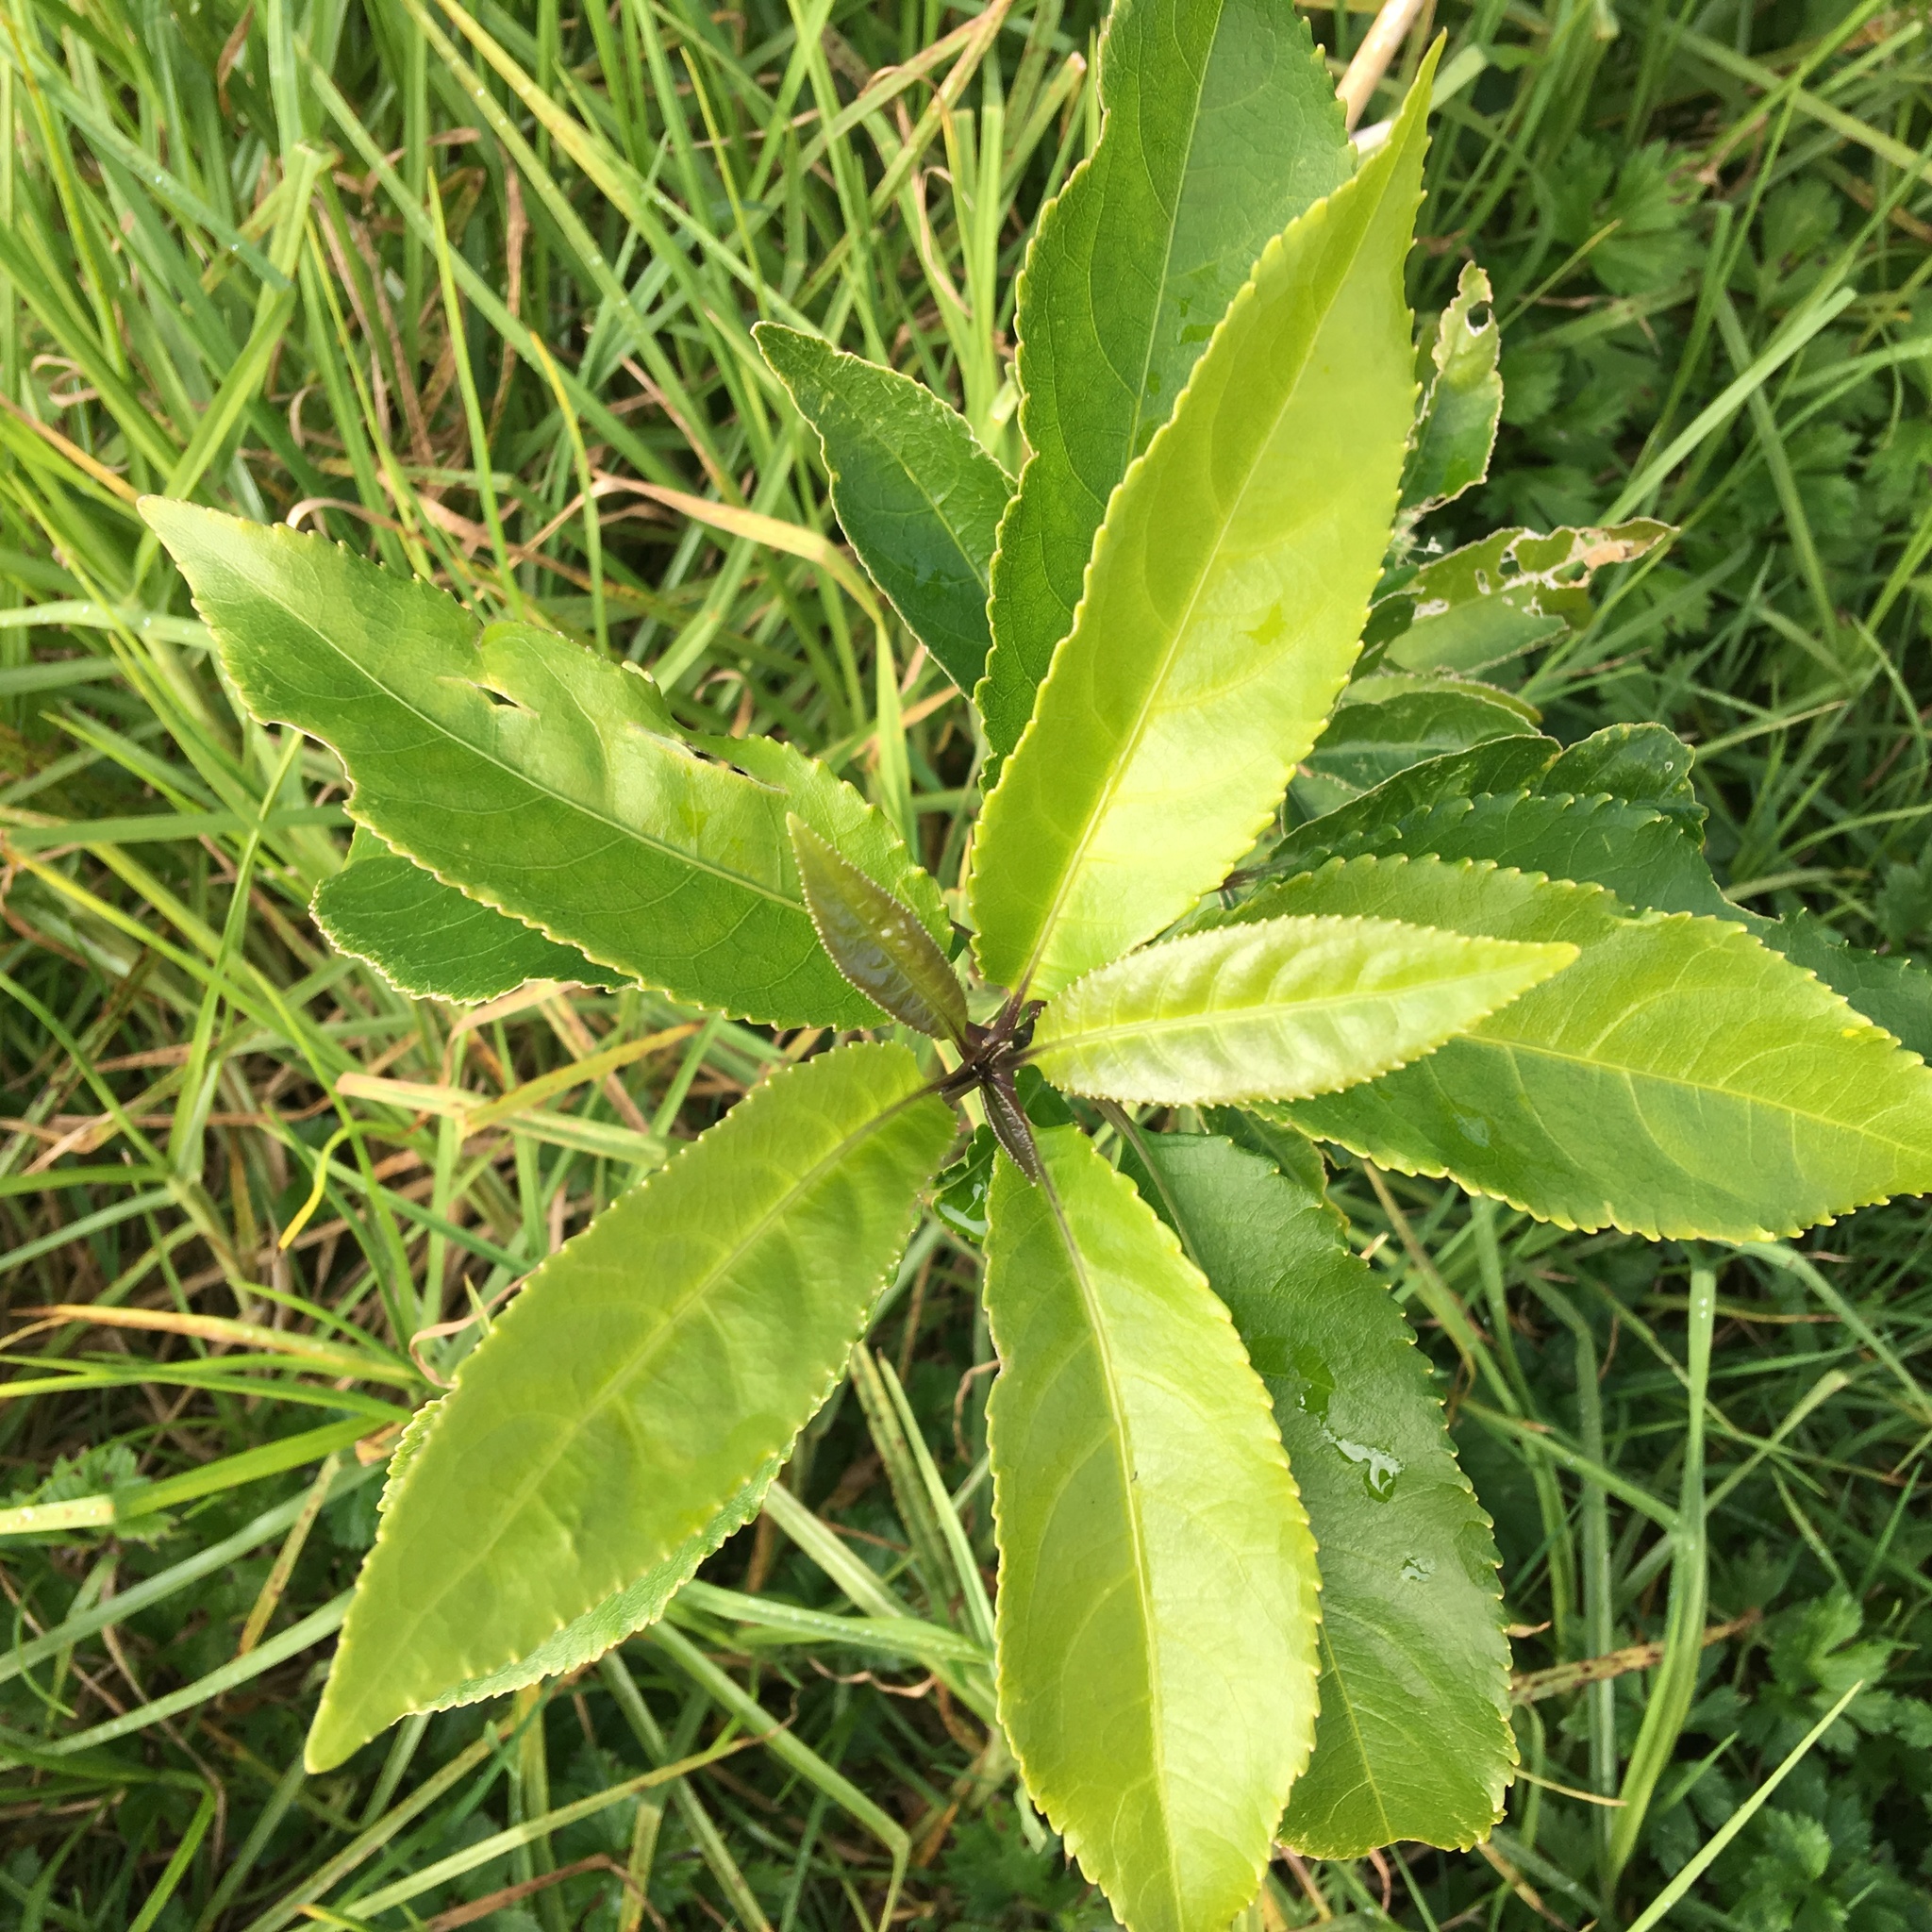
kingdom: Plantae
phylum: Tracheophyta
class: Magnoliopsida
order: Malpighiales
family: Violaceae
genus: Melicytus
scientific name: Melicytus ramiflorus
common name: Mahoe
